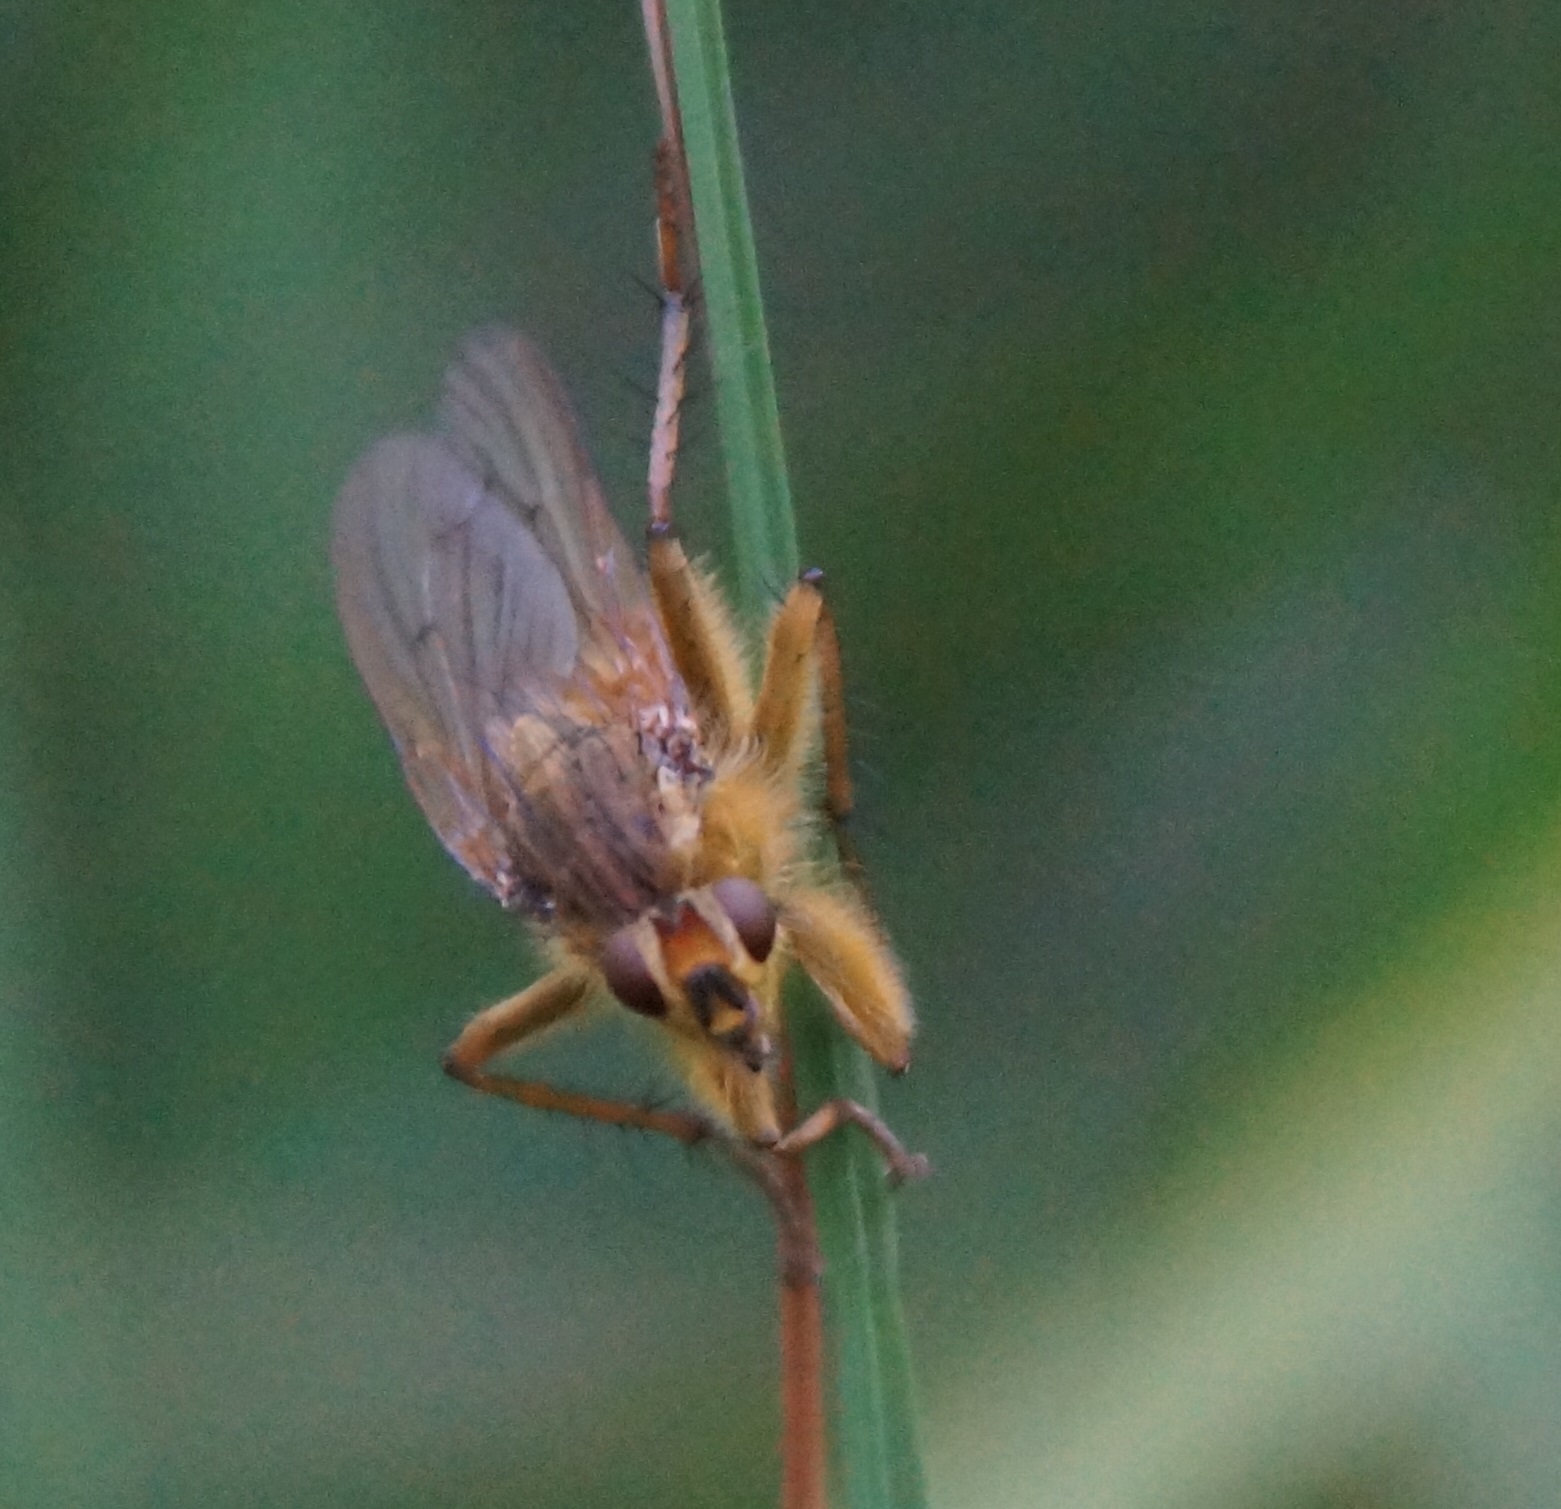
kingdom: Animalia
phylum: Arthropoda
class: Insecta
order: Diptera
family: Scathophagidae
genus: Scathophaga
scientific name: Scathophaga stercoraria
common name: Yellow dung fly
